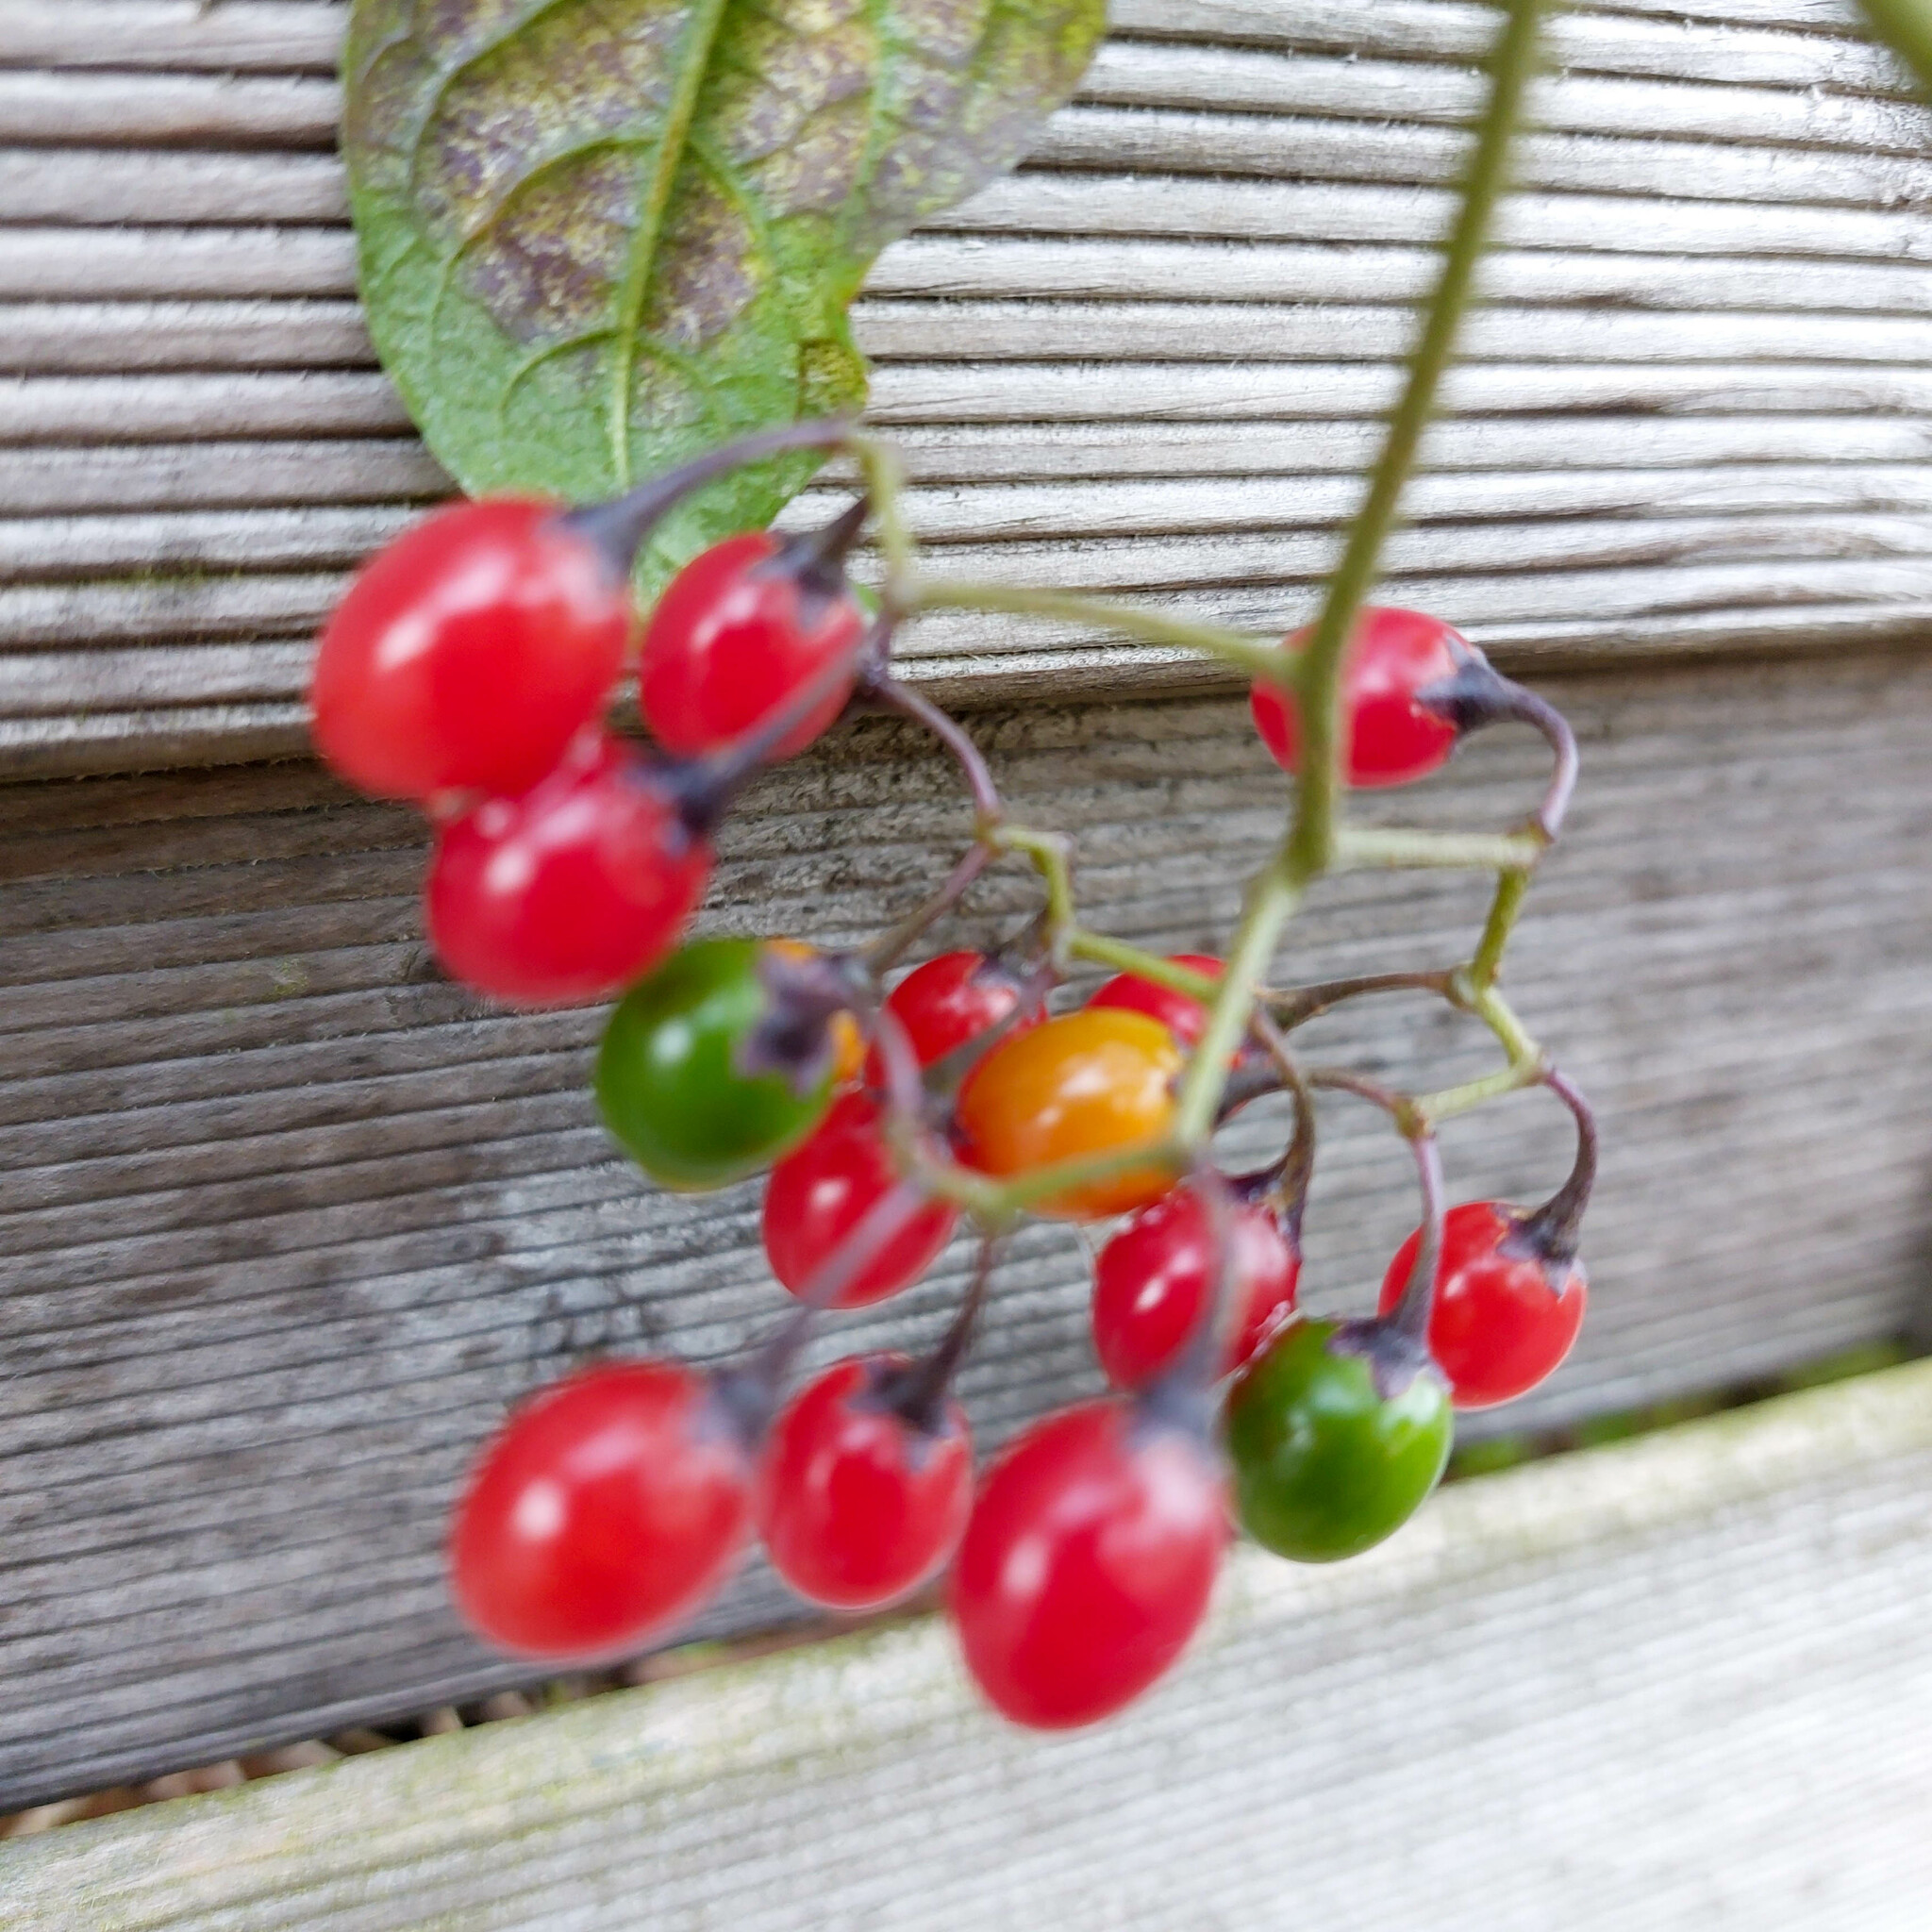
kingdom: Plantae
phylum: Tracheophyta
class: Magnoliopsida
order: Solanales
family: Solanaceae
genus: Solanum
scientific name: Solanum dulcamara
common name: Climbing nightshade
